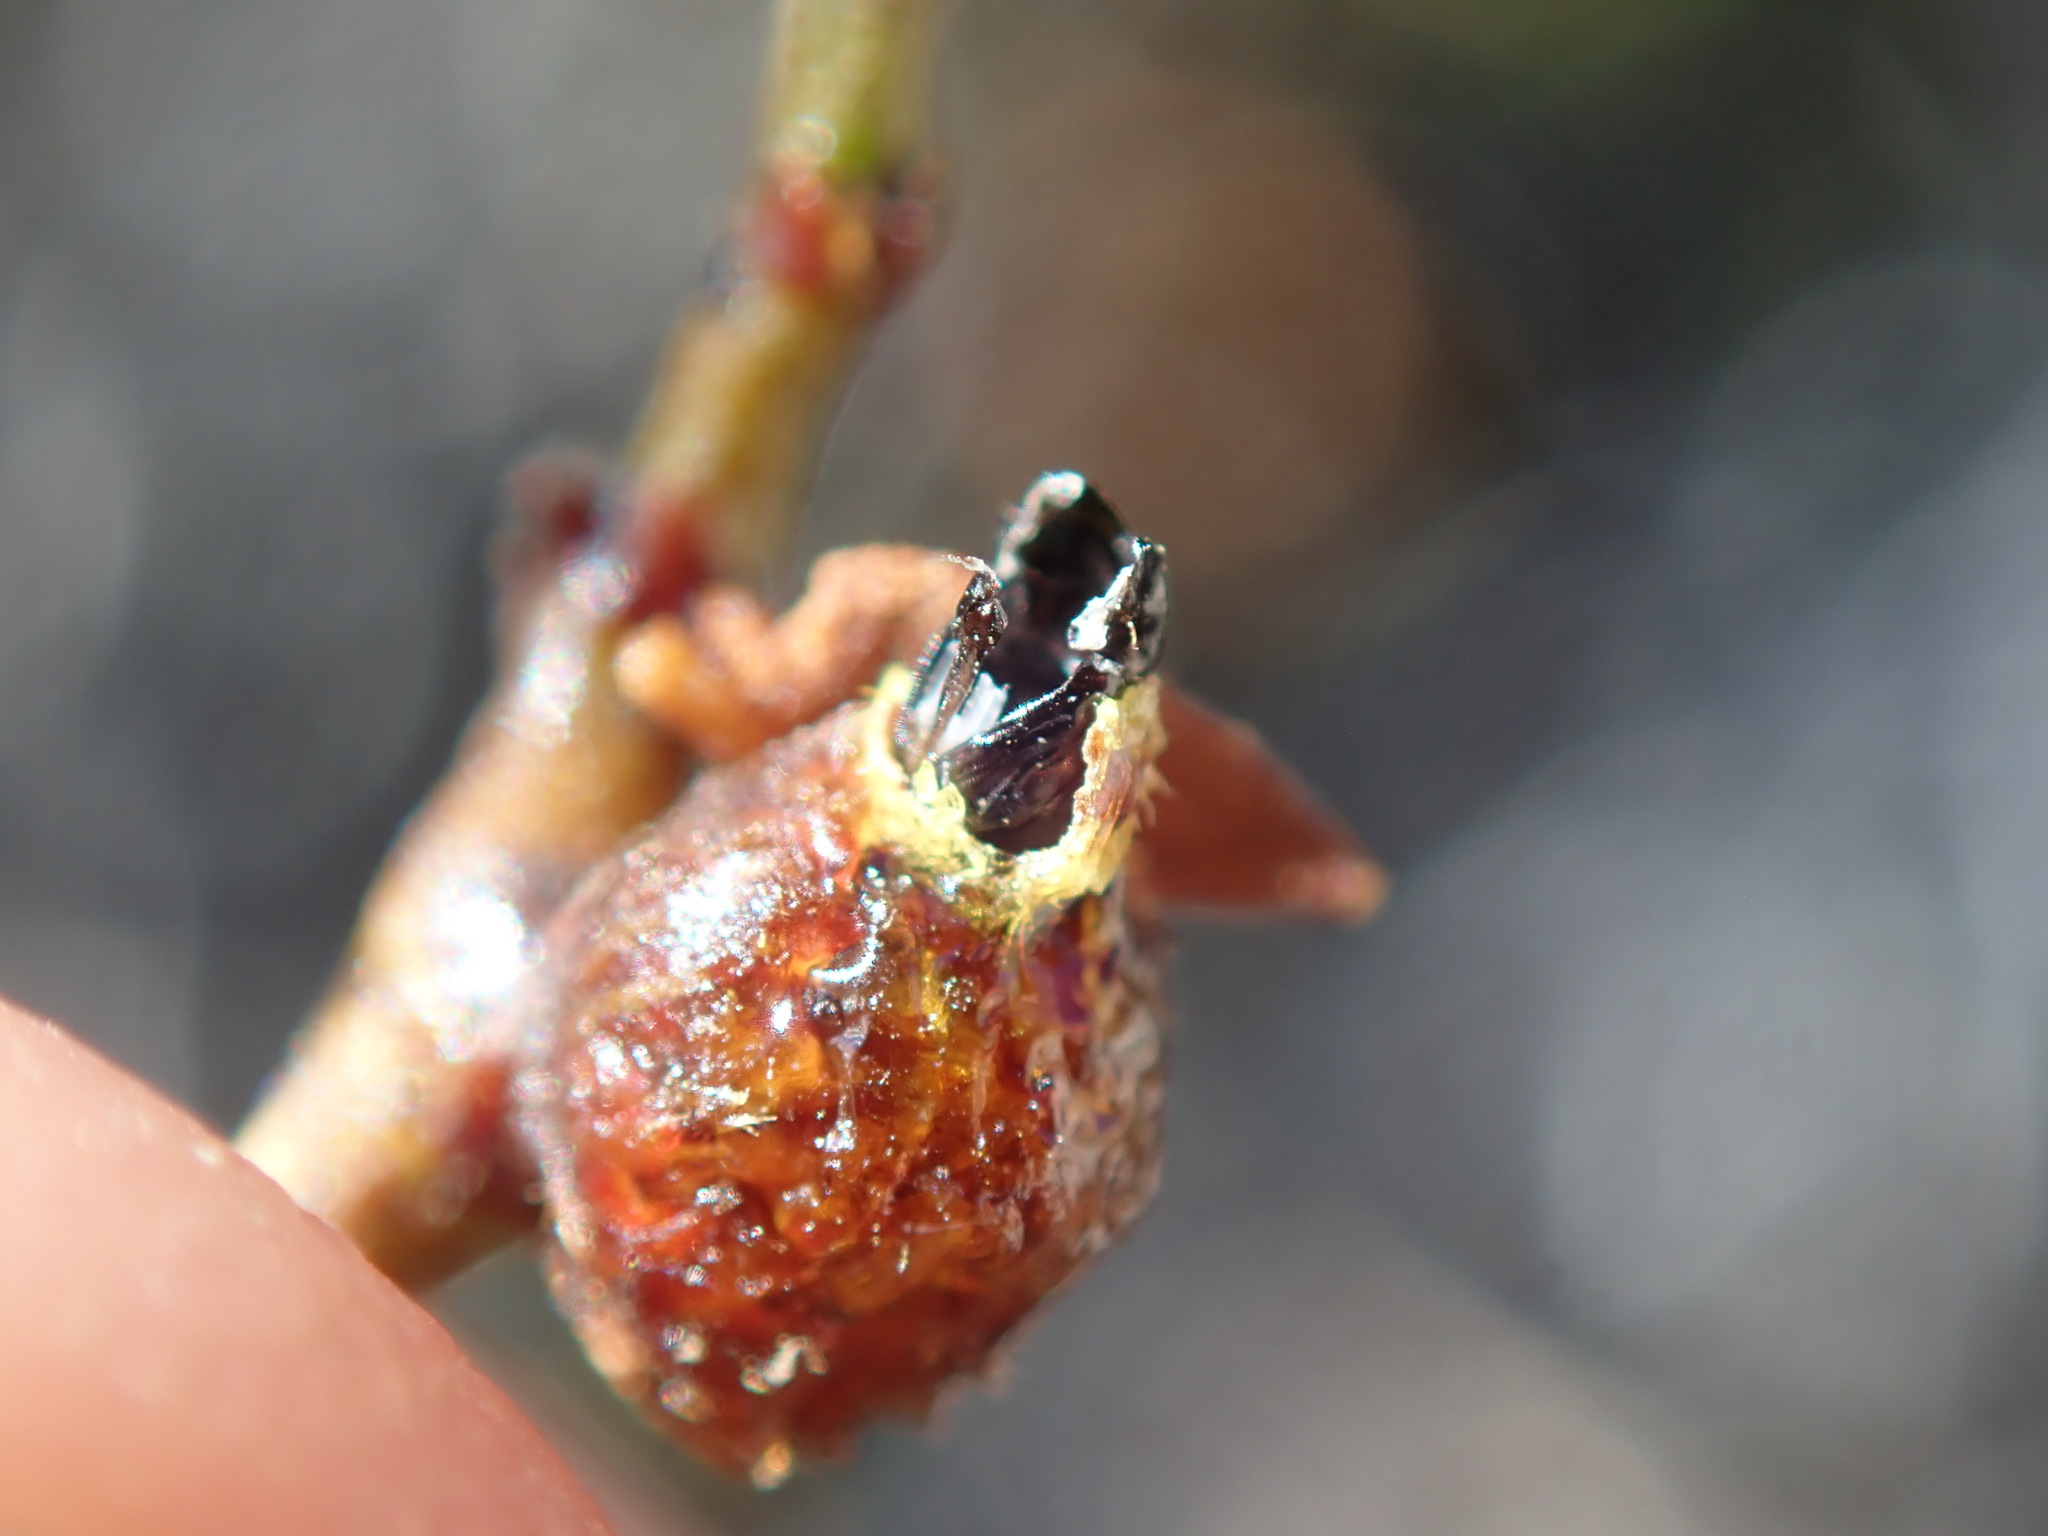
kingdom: Animalia
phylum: Arthropoda
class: Insecta
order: Diptera
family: Cecidomyiidae
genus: Asphondylia
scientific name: Asphondylia resinosa
